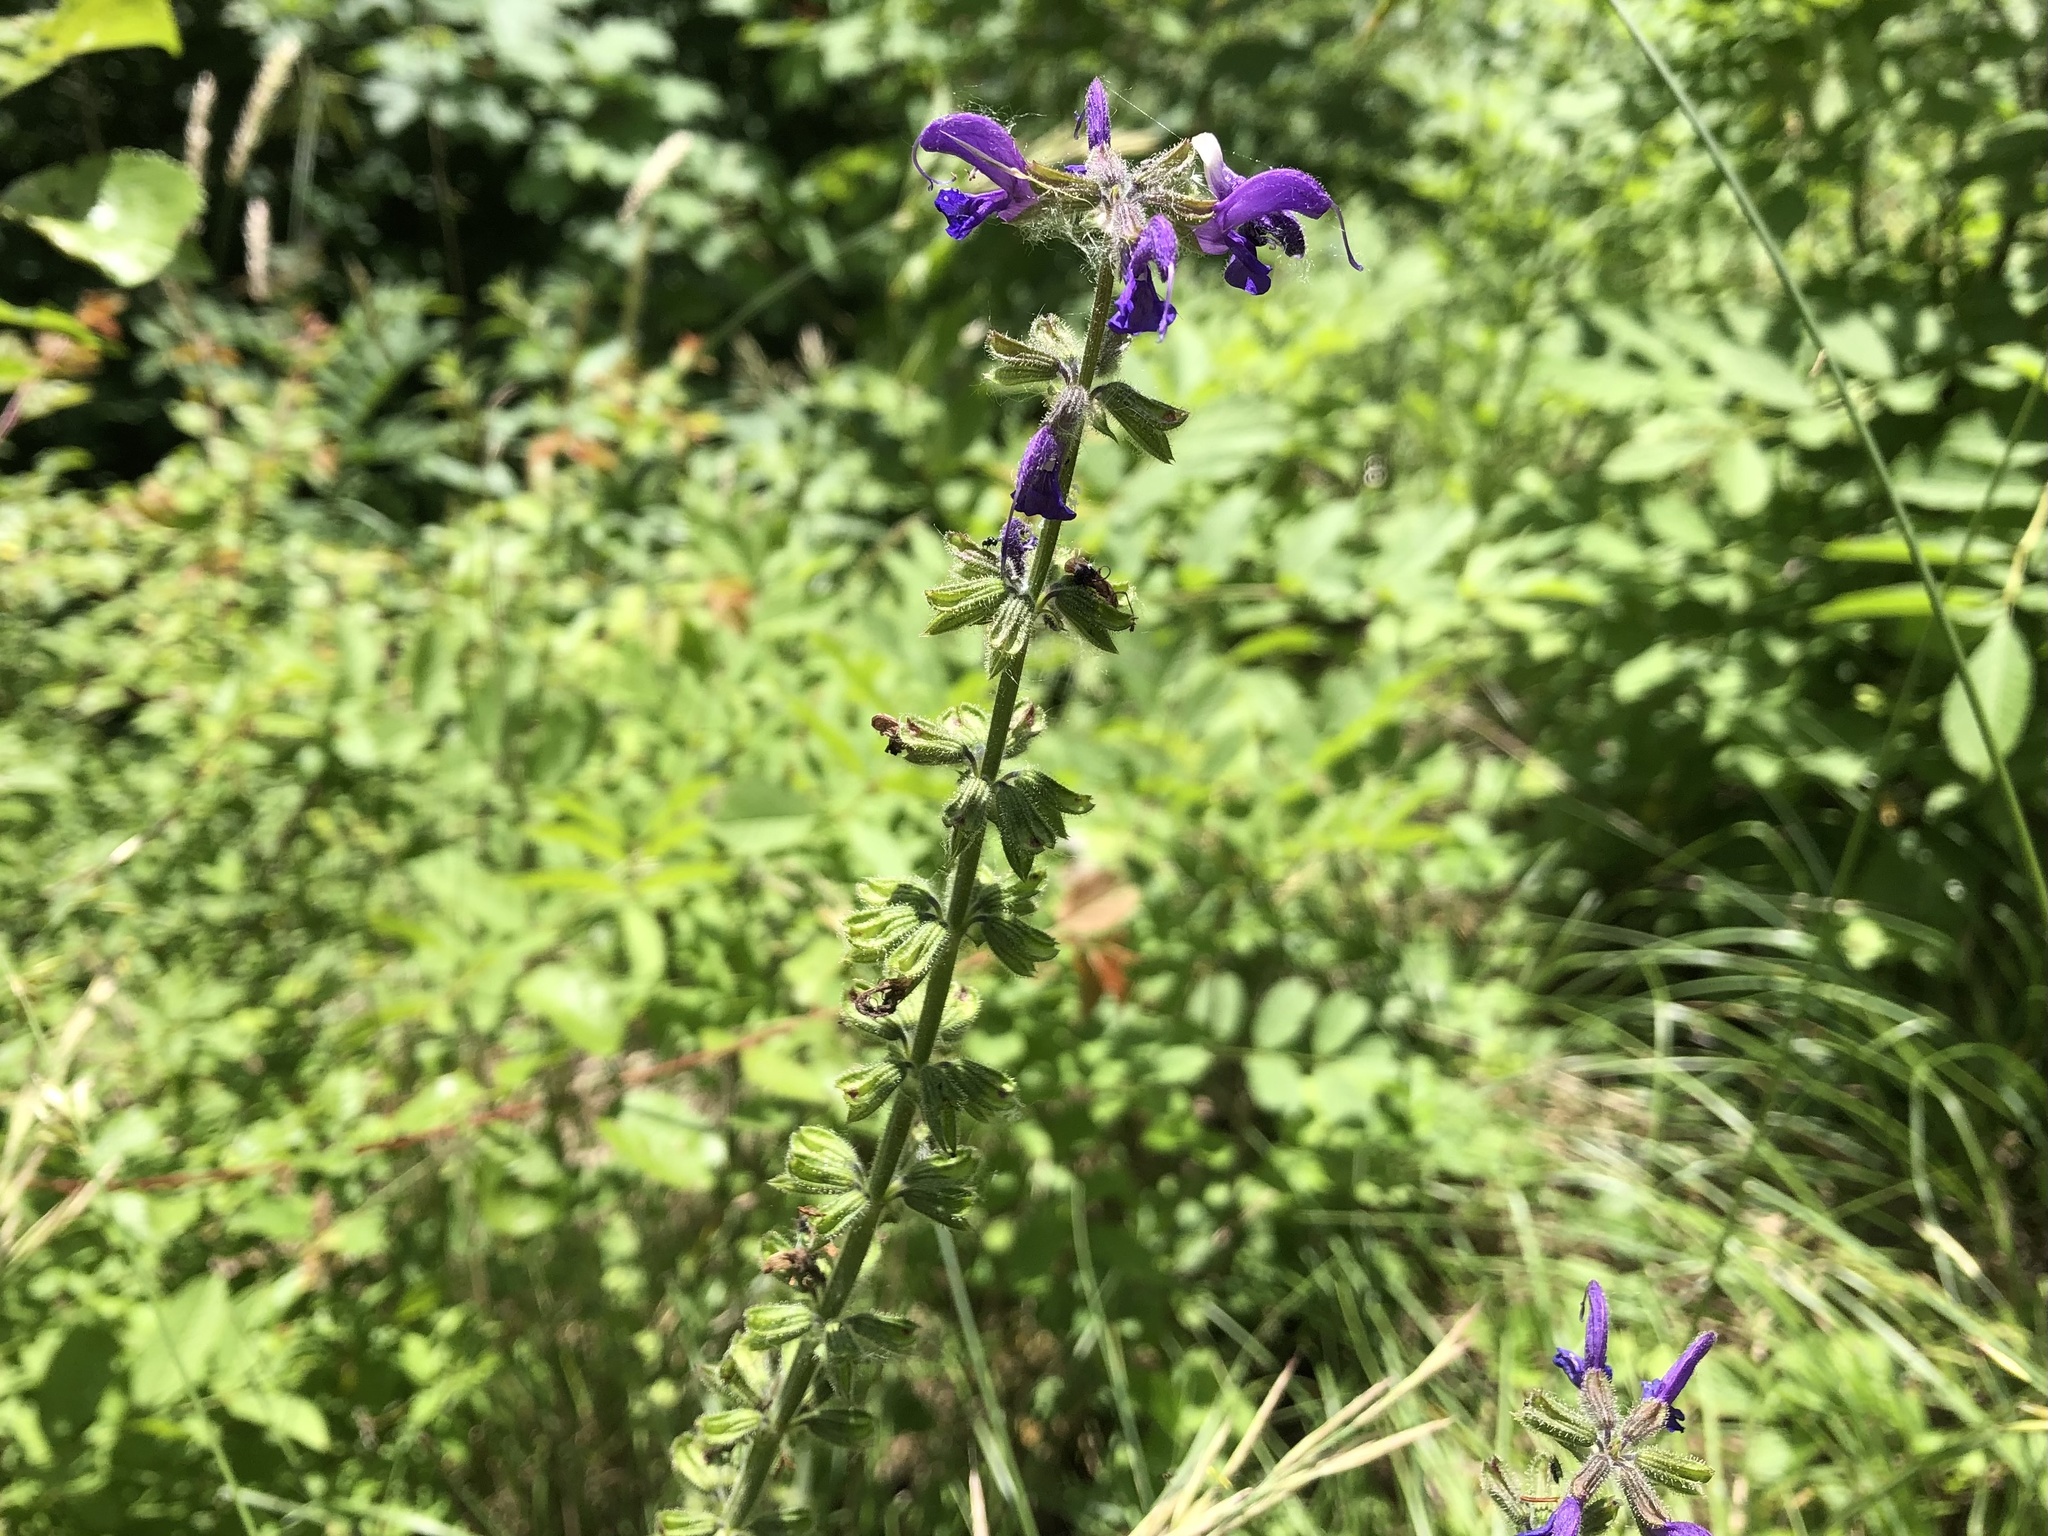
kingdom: Plantae
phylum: Tracheophyta
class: Magnoliopsida
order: Lamiales
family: Lamiaceae
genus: Salvia
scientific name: Salvia pratensis
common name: Meadow sage
